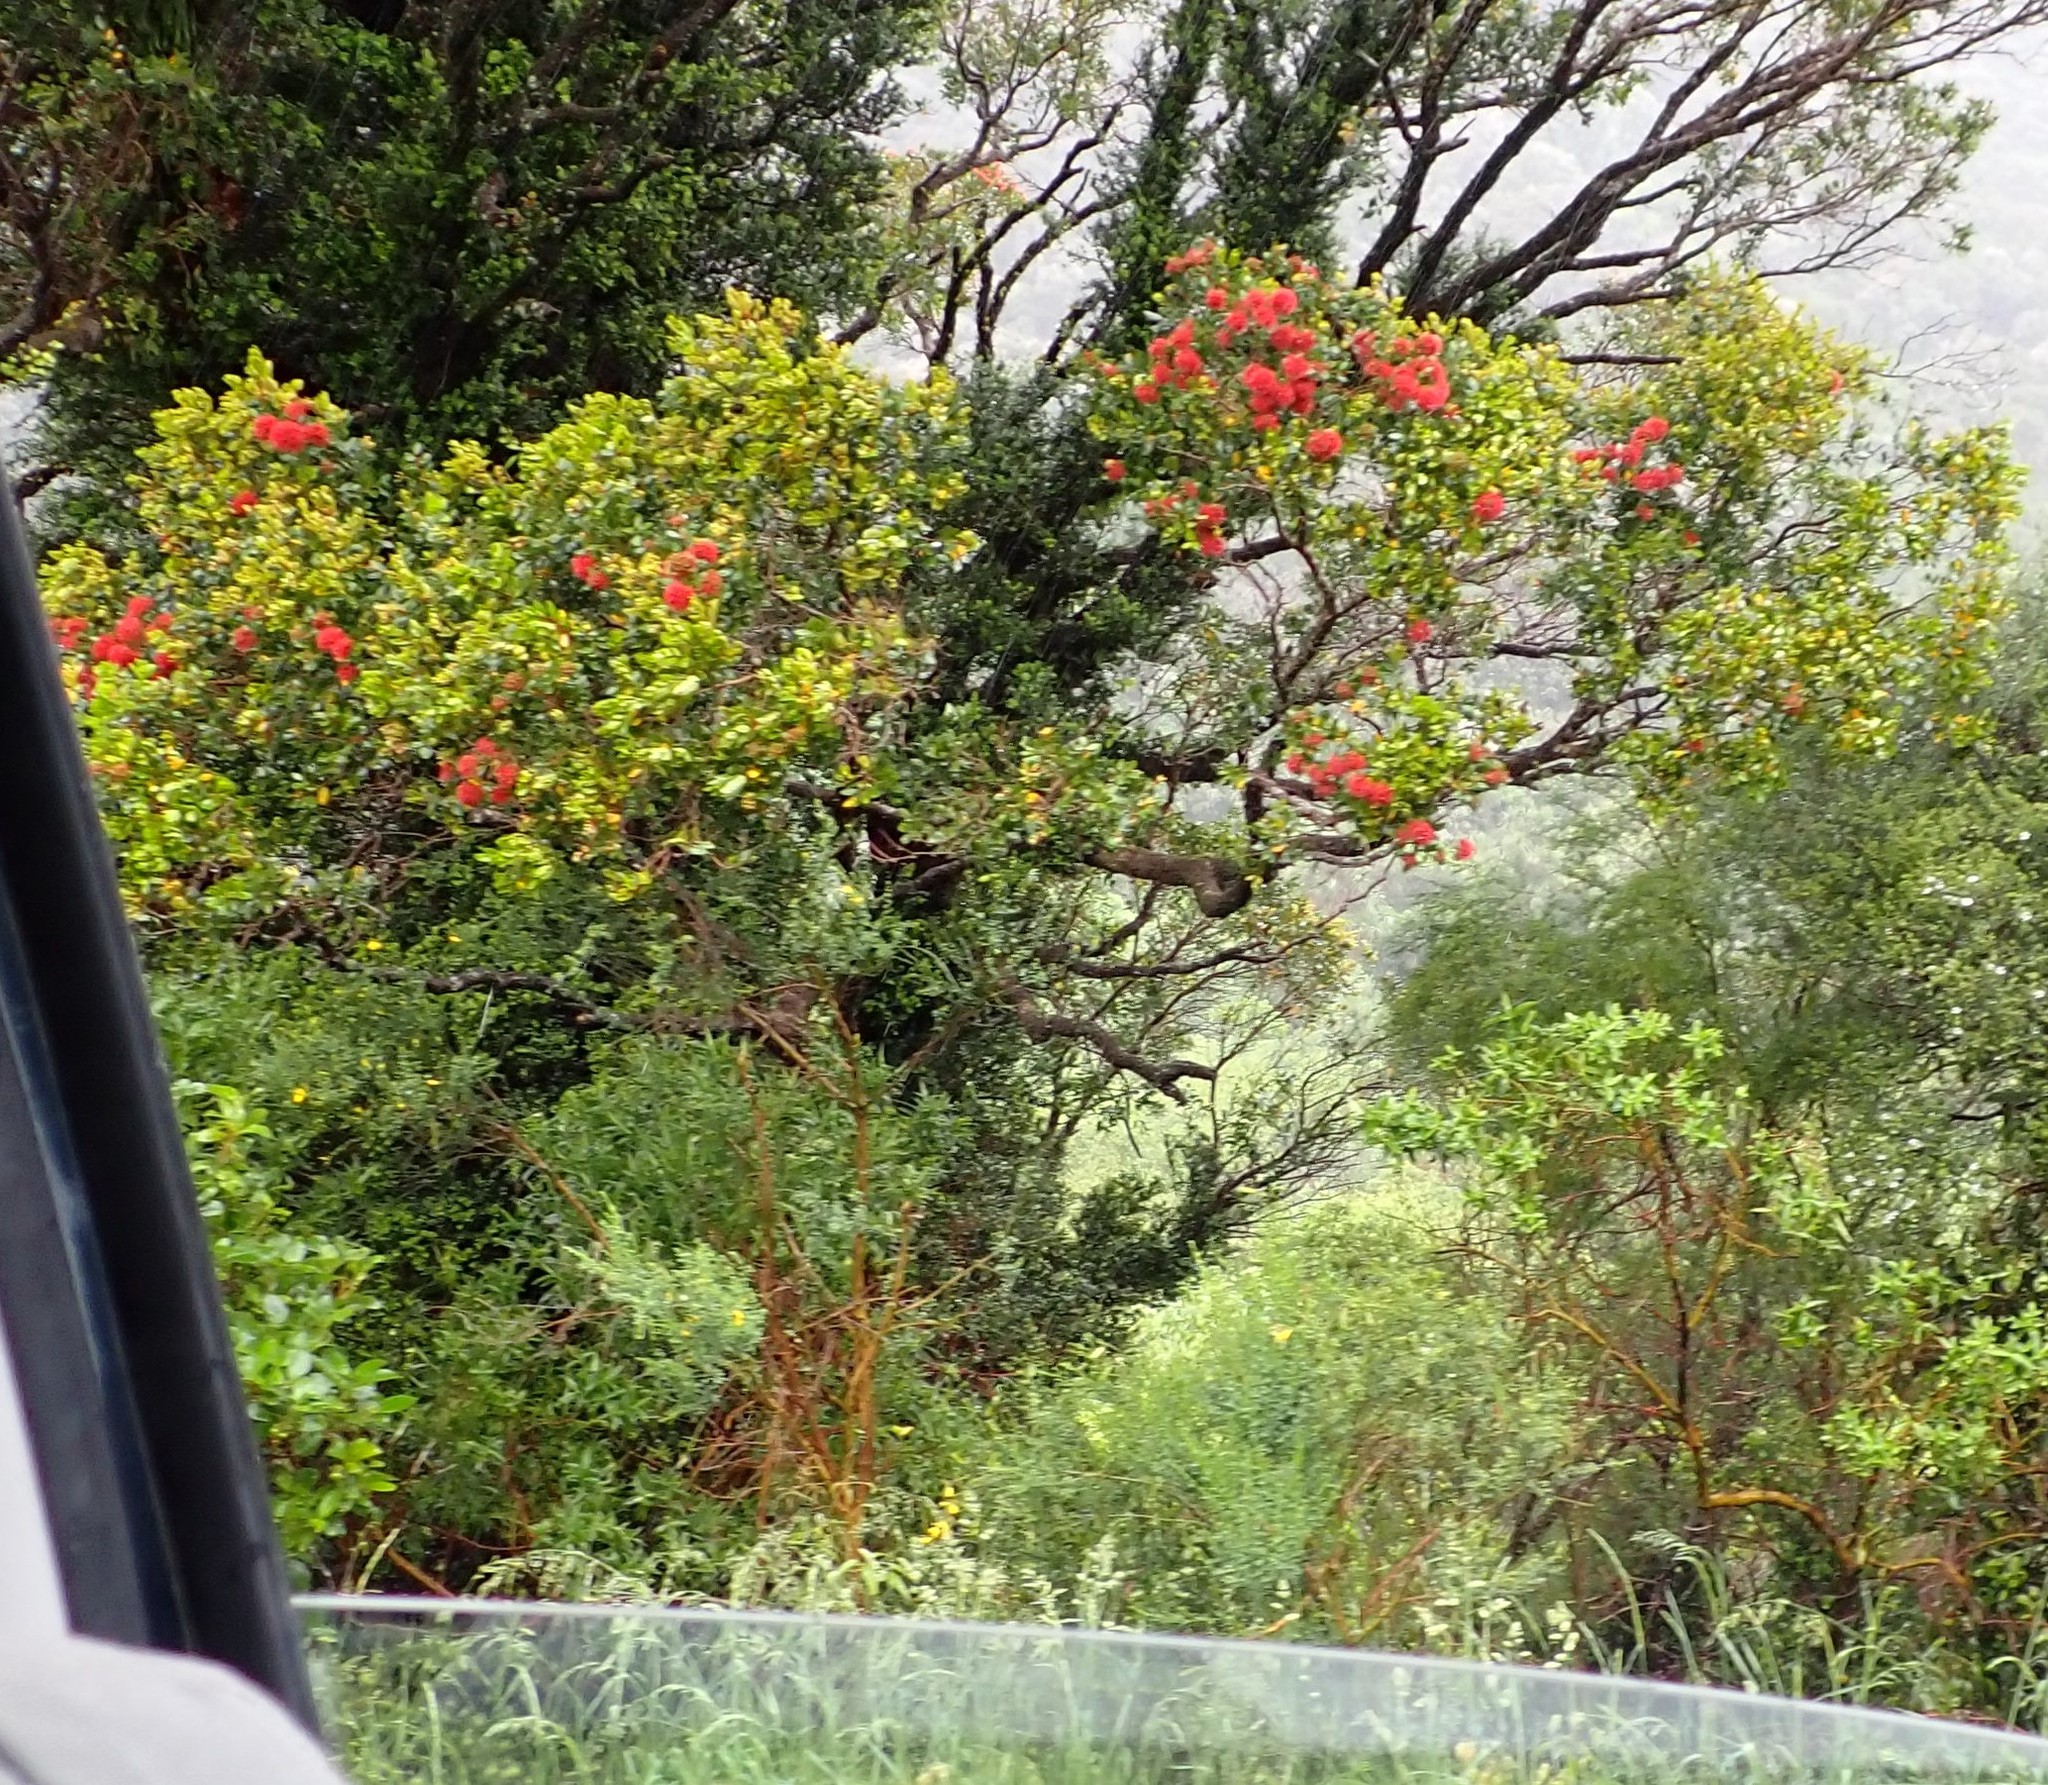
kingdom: Plantae
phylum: Tracheophyta
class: Magnoliopsida
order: Myrtales
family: Myrtaceae
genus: Metrosideros
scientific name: Metrosideros robusta
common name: Northern rata
